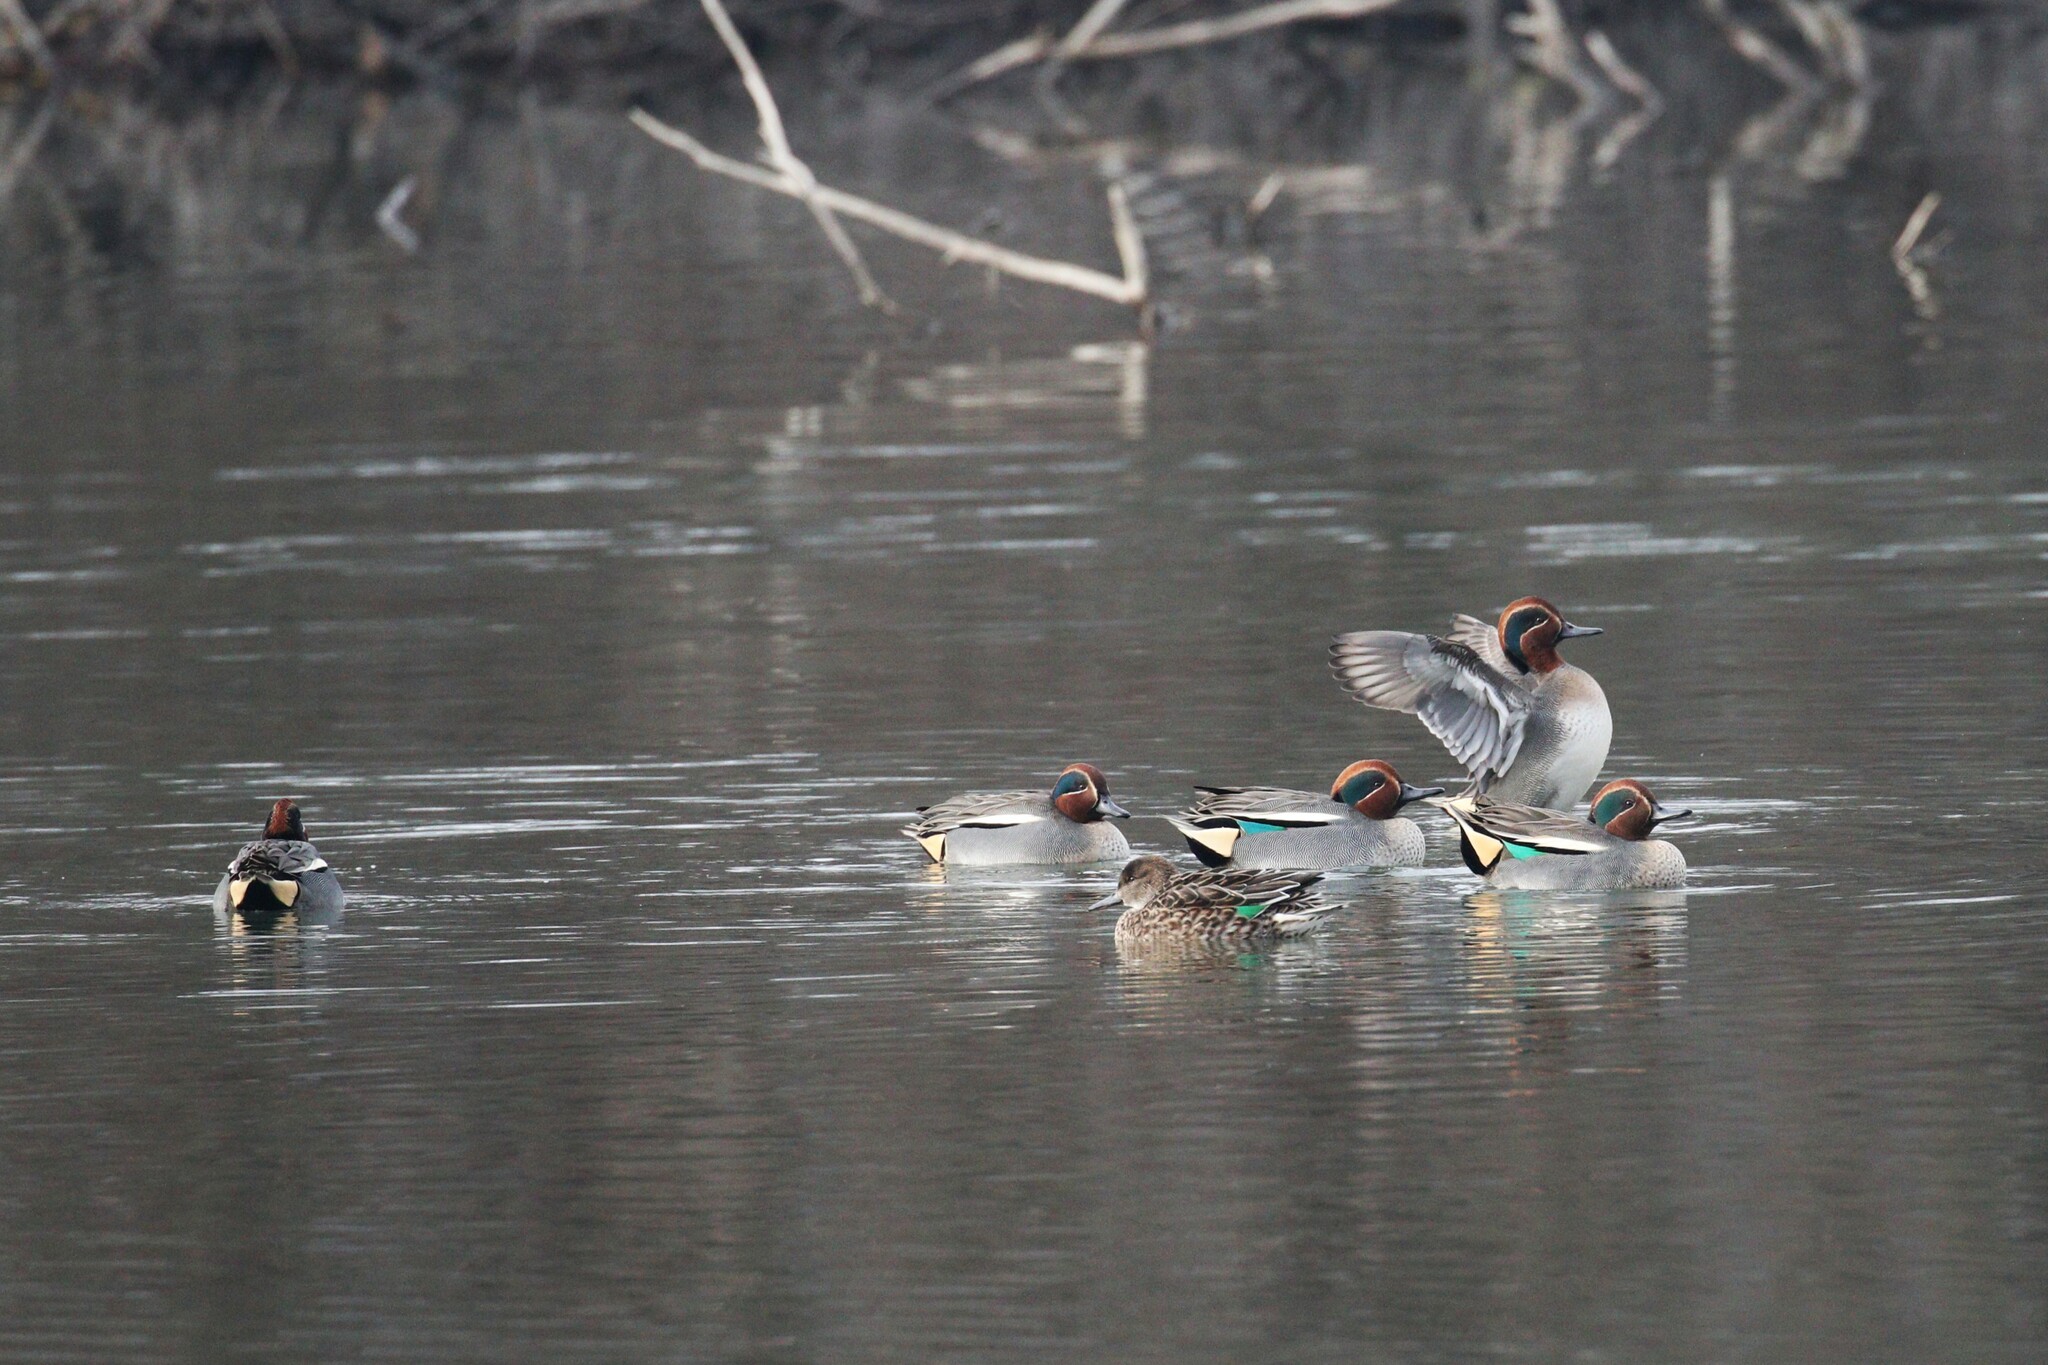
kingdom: Animalia
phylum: Chordata
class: Aves
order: Anseriformes
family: Anatidae
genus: Anas
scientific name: Anas crecca
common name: Eurasian teal
